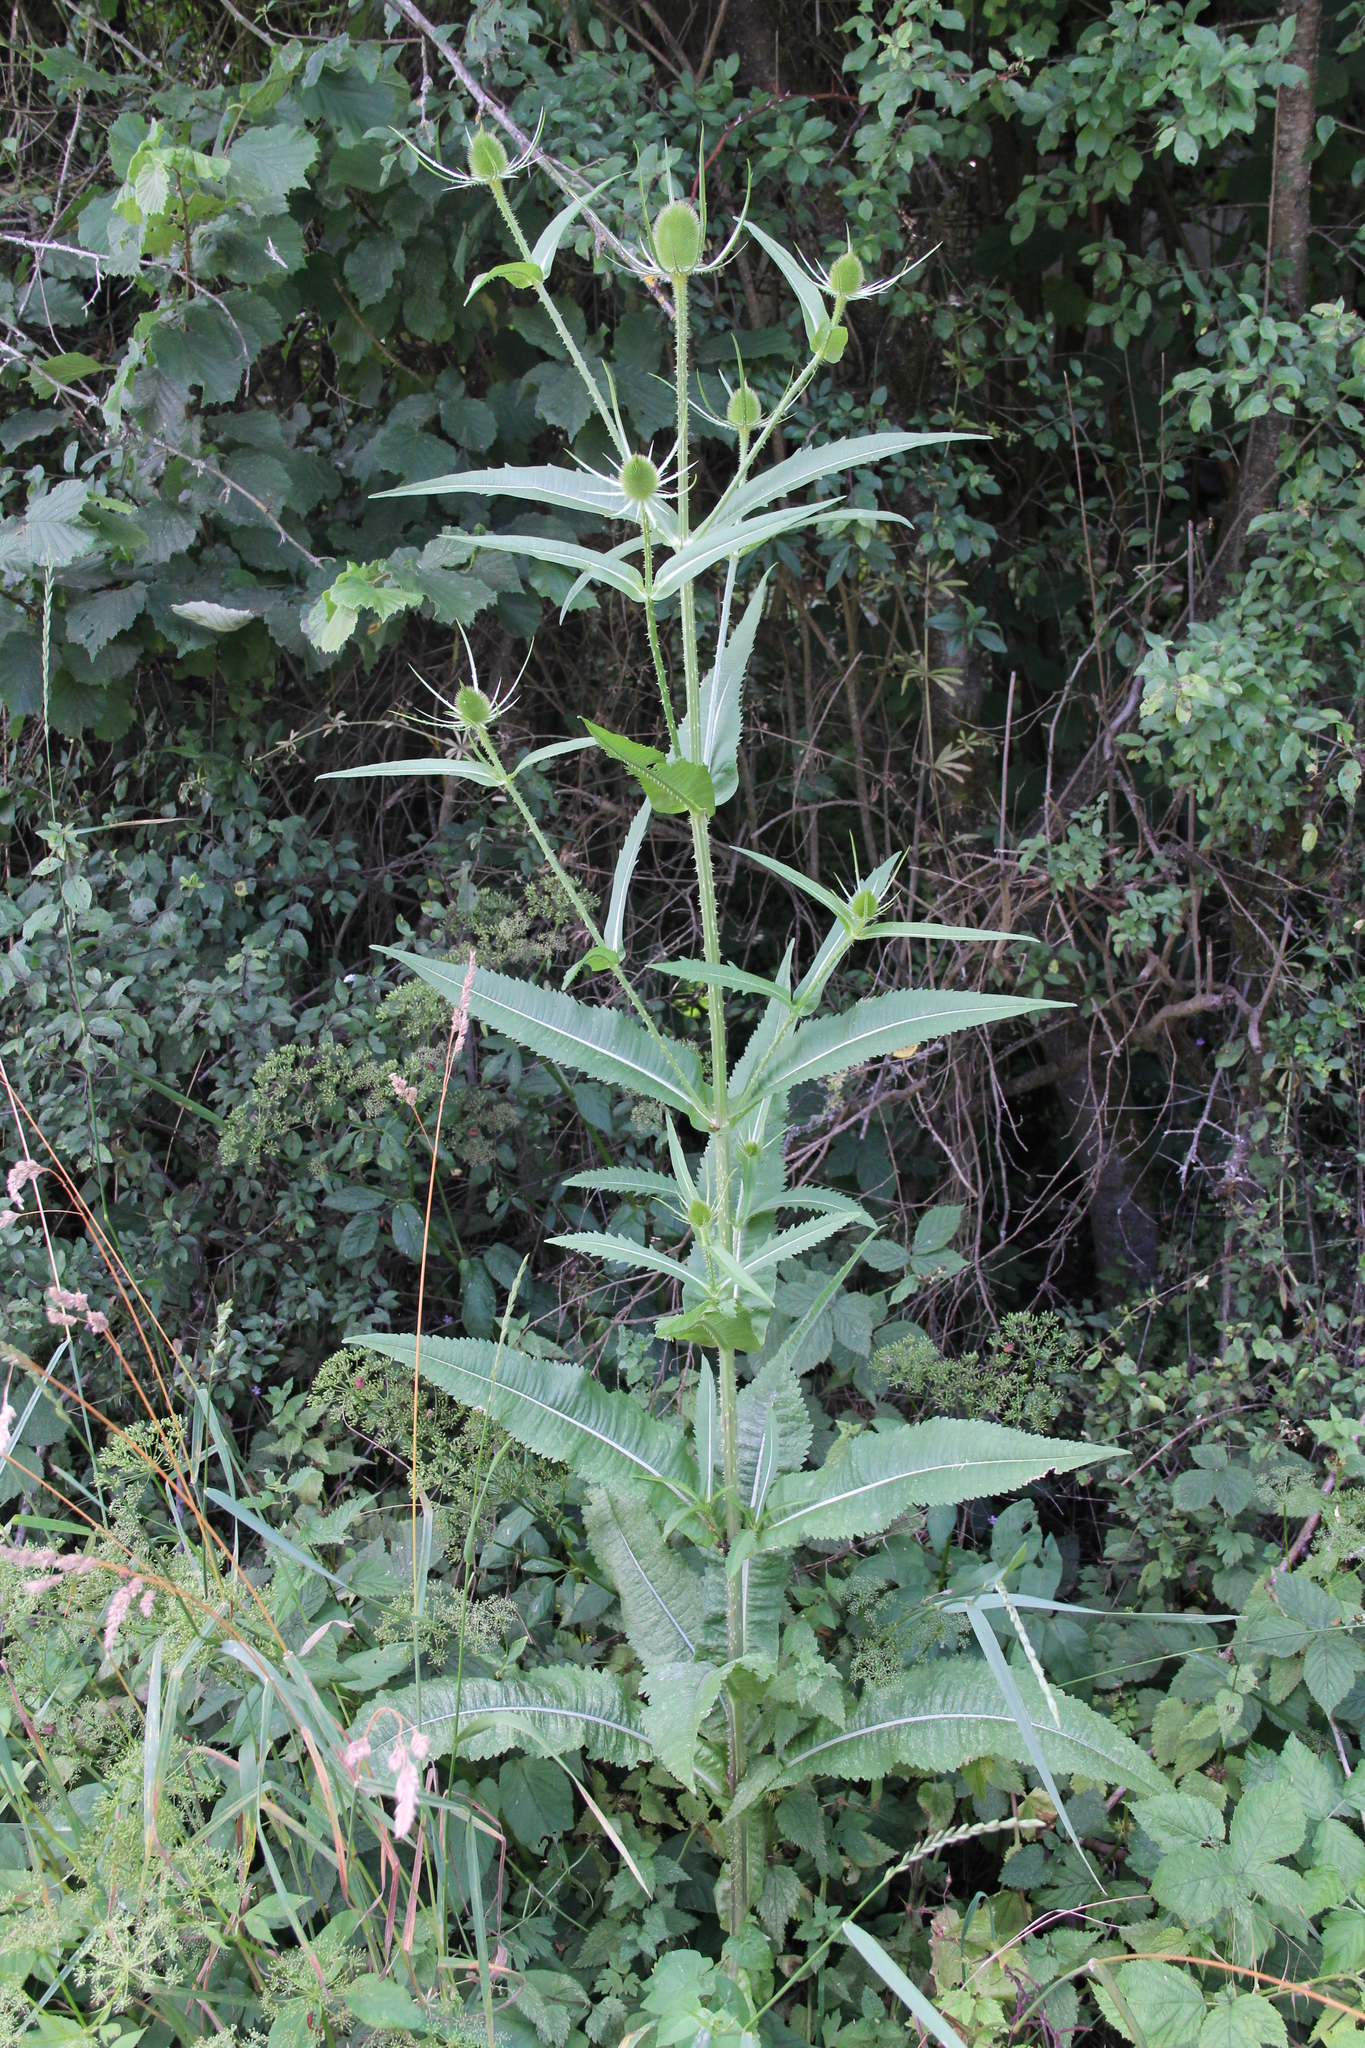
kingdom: Plantae
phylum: Tracheophyta
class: Magnoliopsida
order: Dipsacales
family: Caprifoliaceae
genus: Dipsacus
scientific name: Dipsacus fullonum
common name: Teasel
